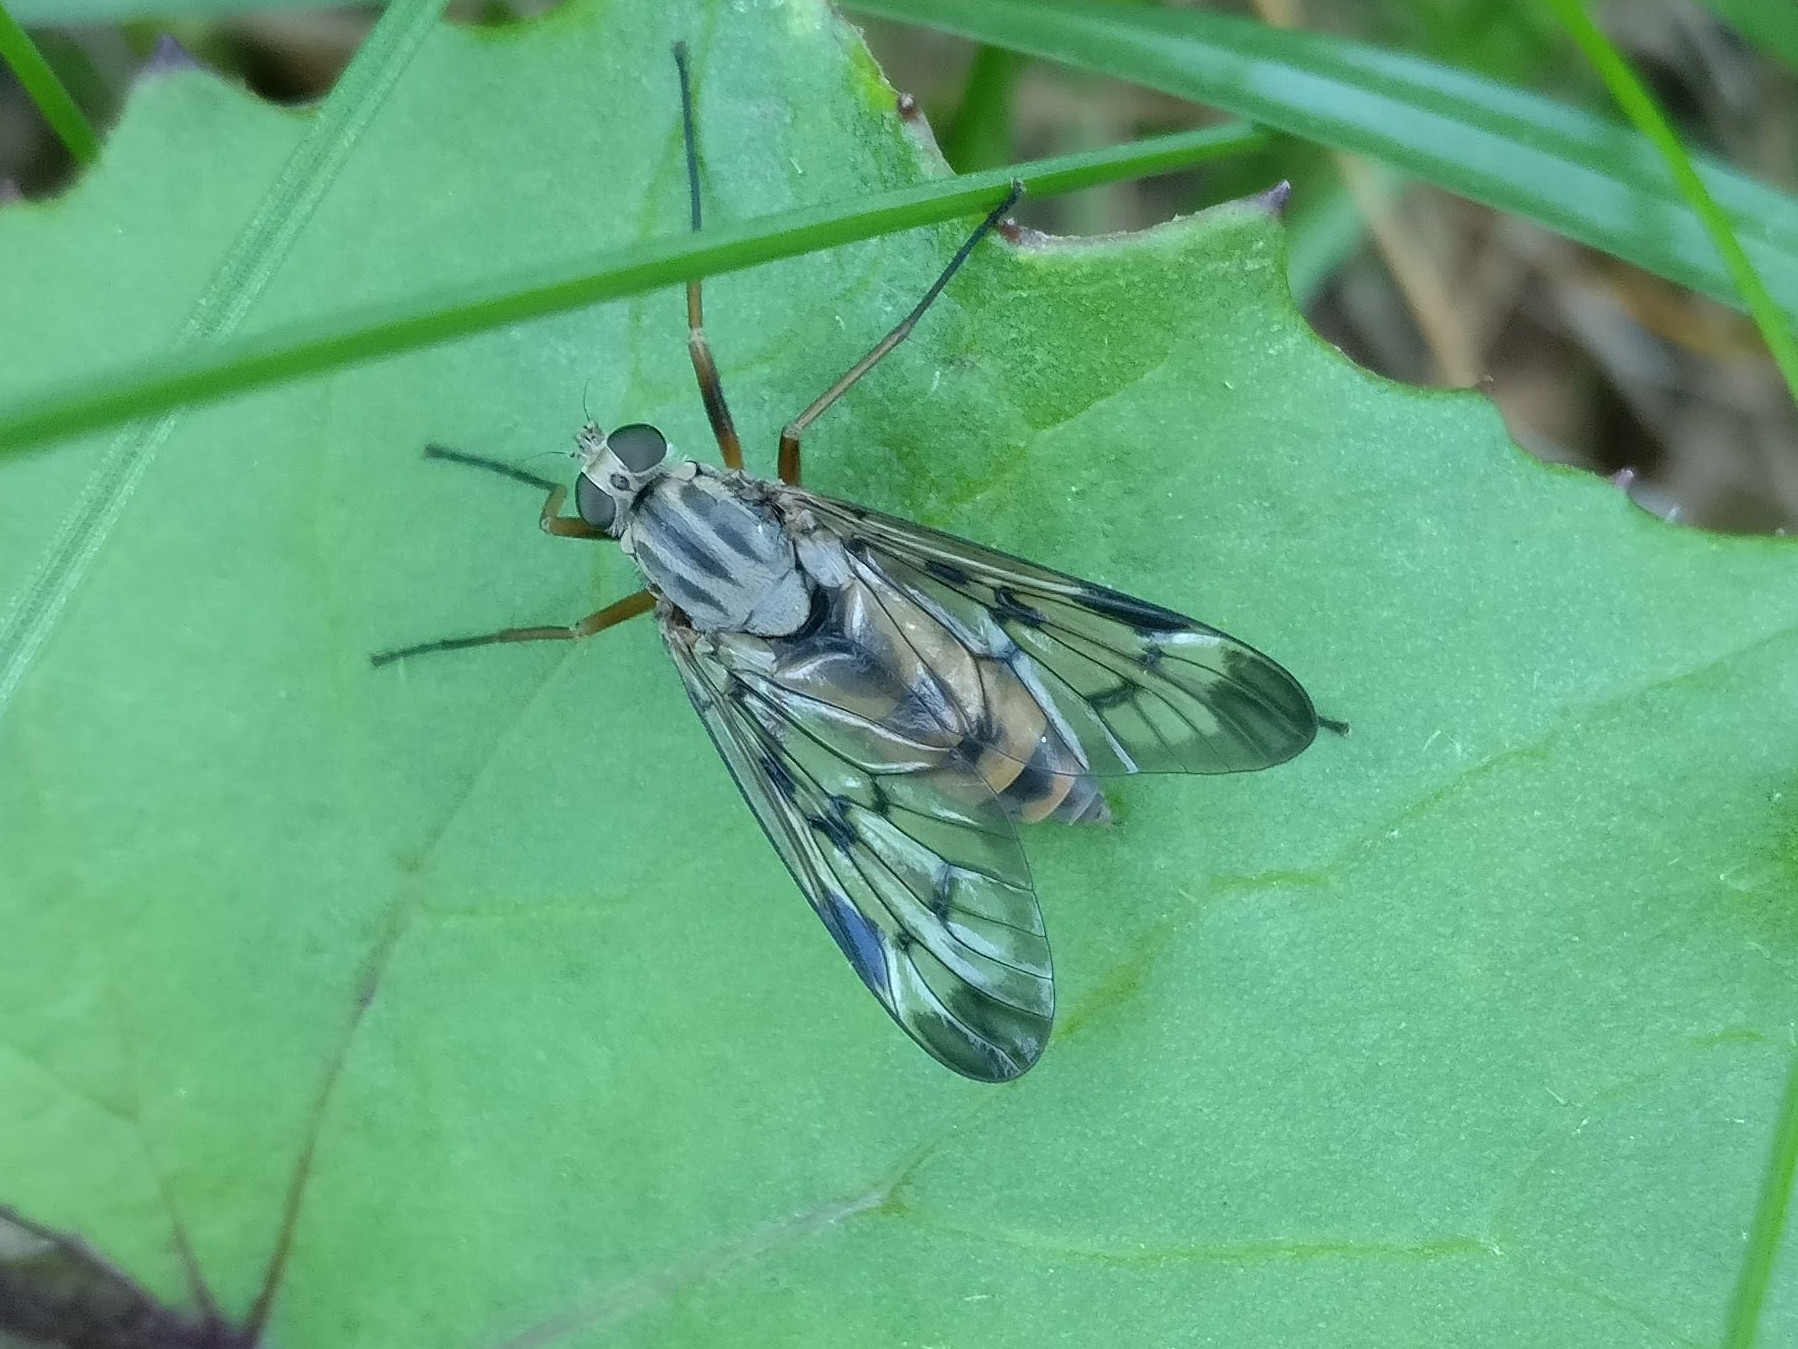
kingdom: Animalia
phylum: Arthropoda
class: Insecta
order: Diptera
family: Rhagionidae
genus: Rhagio
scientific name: Rhagio scolopacea
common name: Downlooker snipefly
